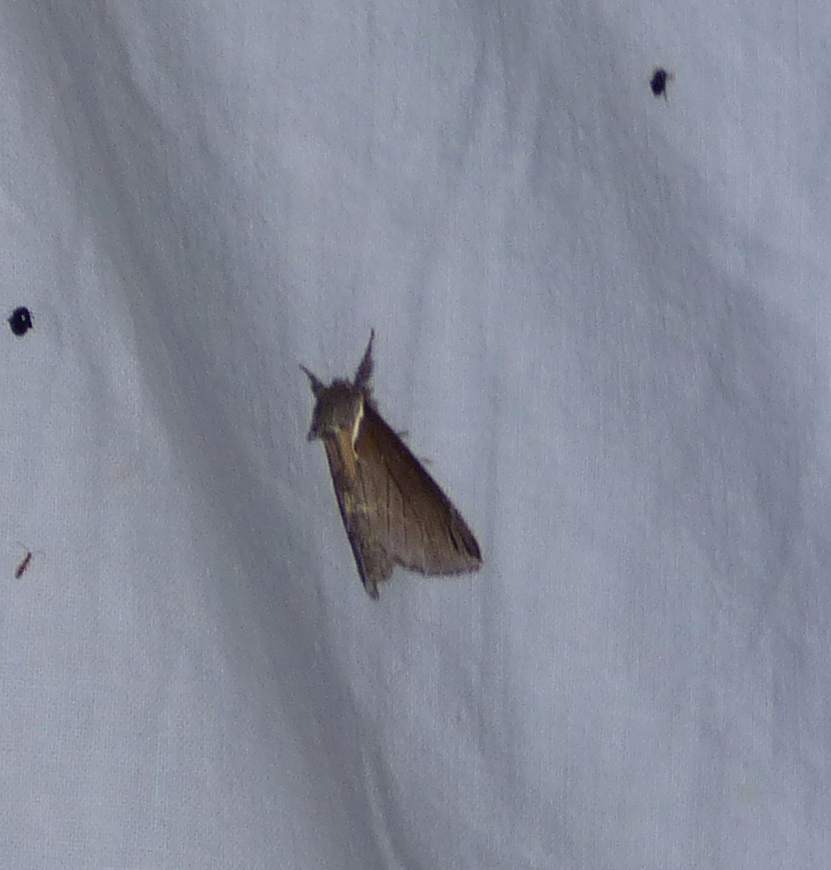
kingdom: Animalia
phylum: Arthropoda
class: Insecta
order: Lepidoptera
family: Notodontidae
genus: Pheosidea
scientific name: Pheosidea elegans
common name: Elegant prominent
